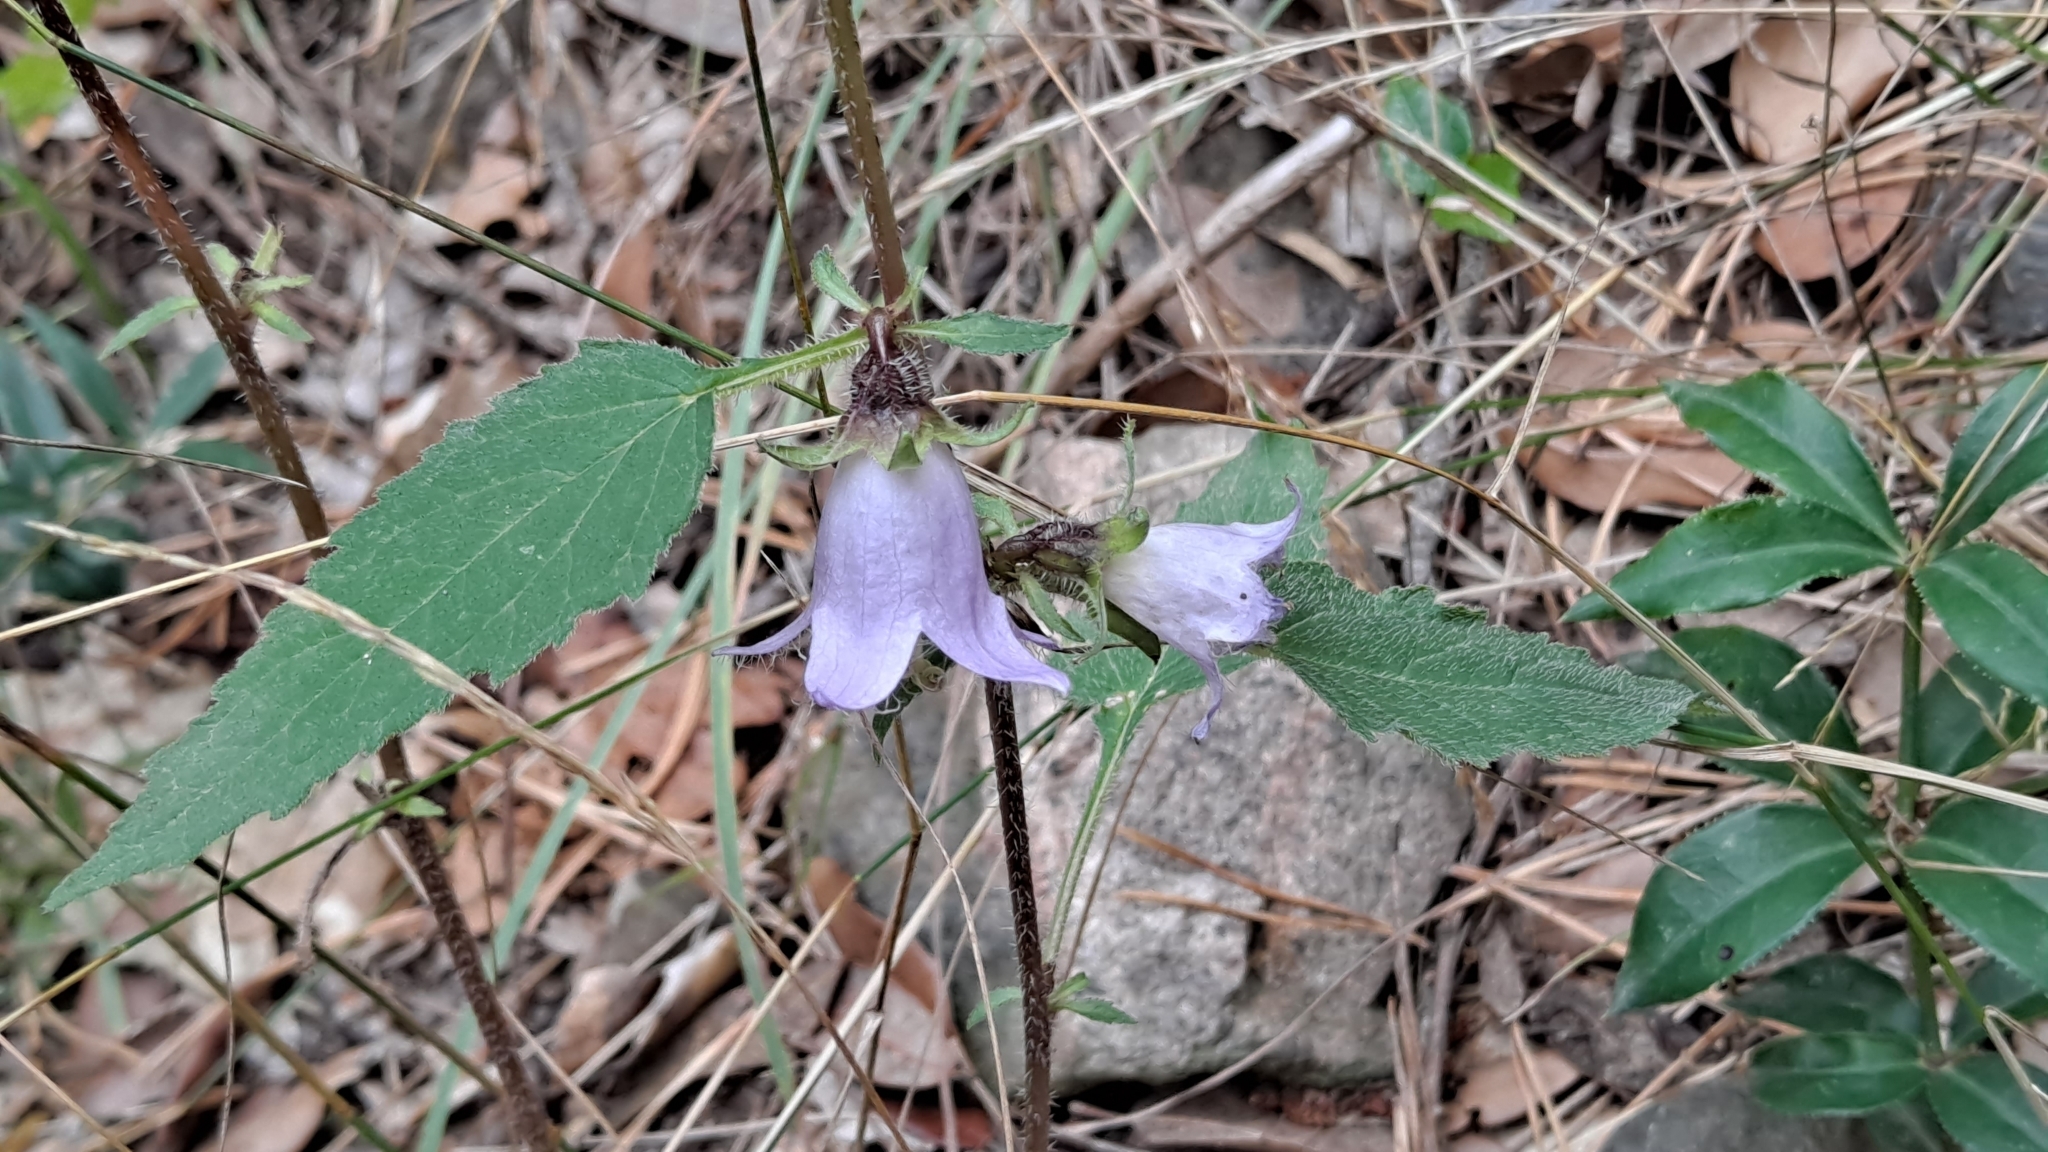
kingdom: Plantae
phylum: Tracheophyta
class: Magnoliopsida
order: Asterales
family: Campanulaceae
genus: Campanula
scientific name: Campanula trachelium
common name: Nettle-leaved bellflower
